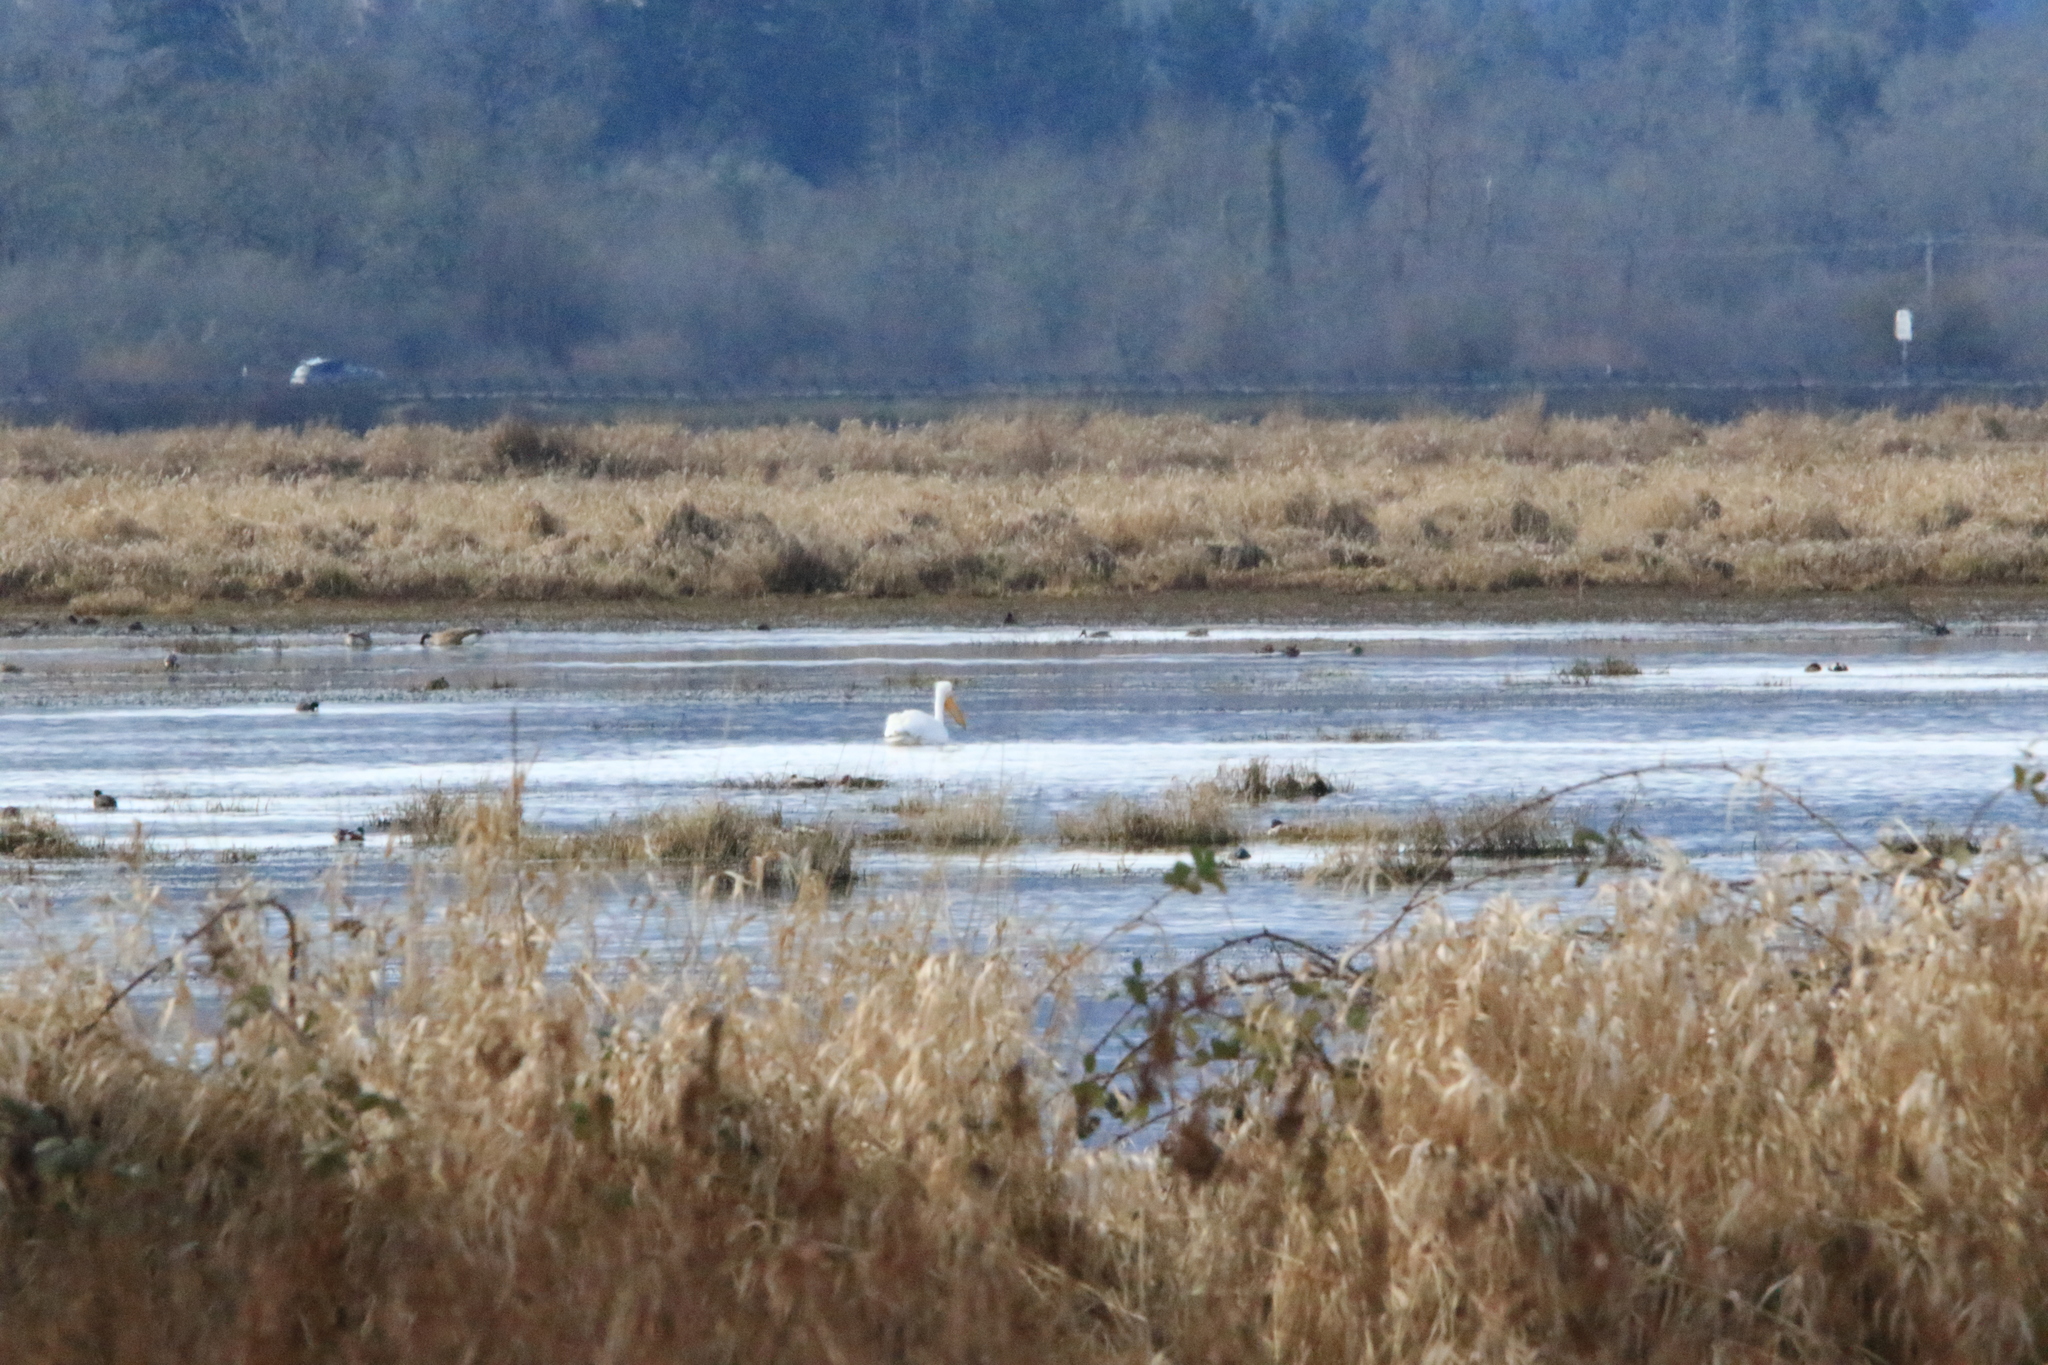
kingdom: Animalia
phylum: Chordata
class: Aves
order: Pelecaniformes
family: Pelecanidae
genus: Pelecanus
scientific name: Pelecanus erythrorhynchos
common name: American white pelican
